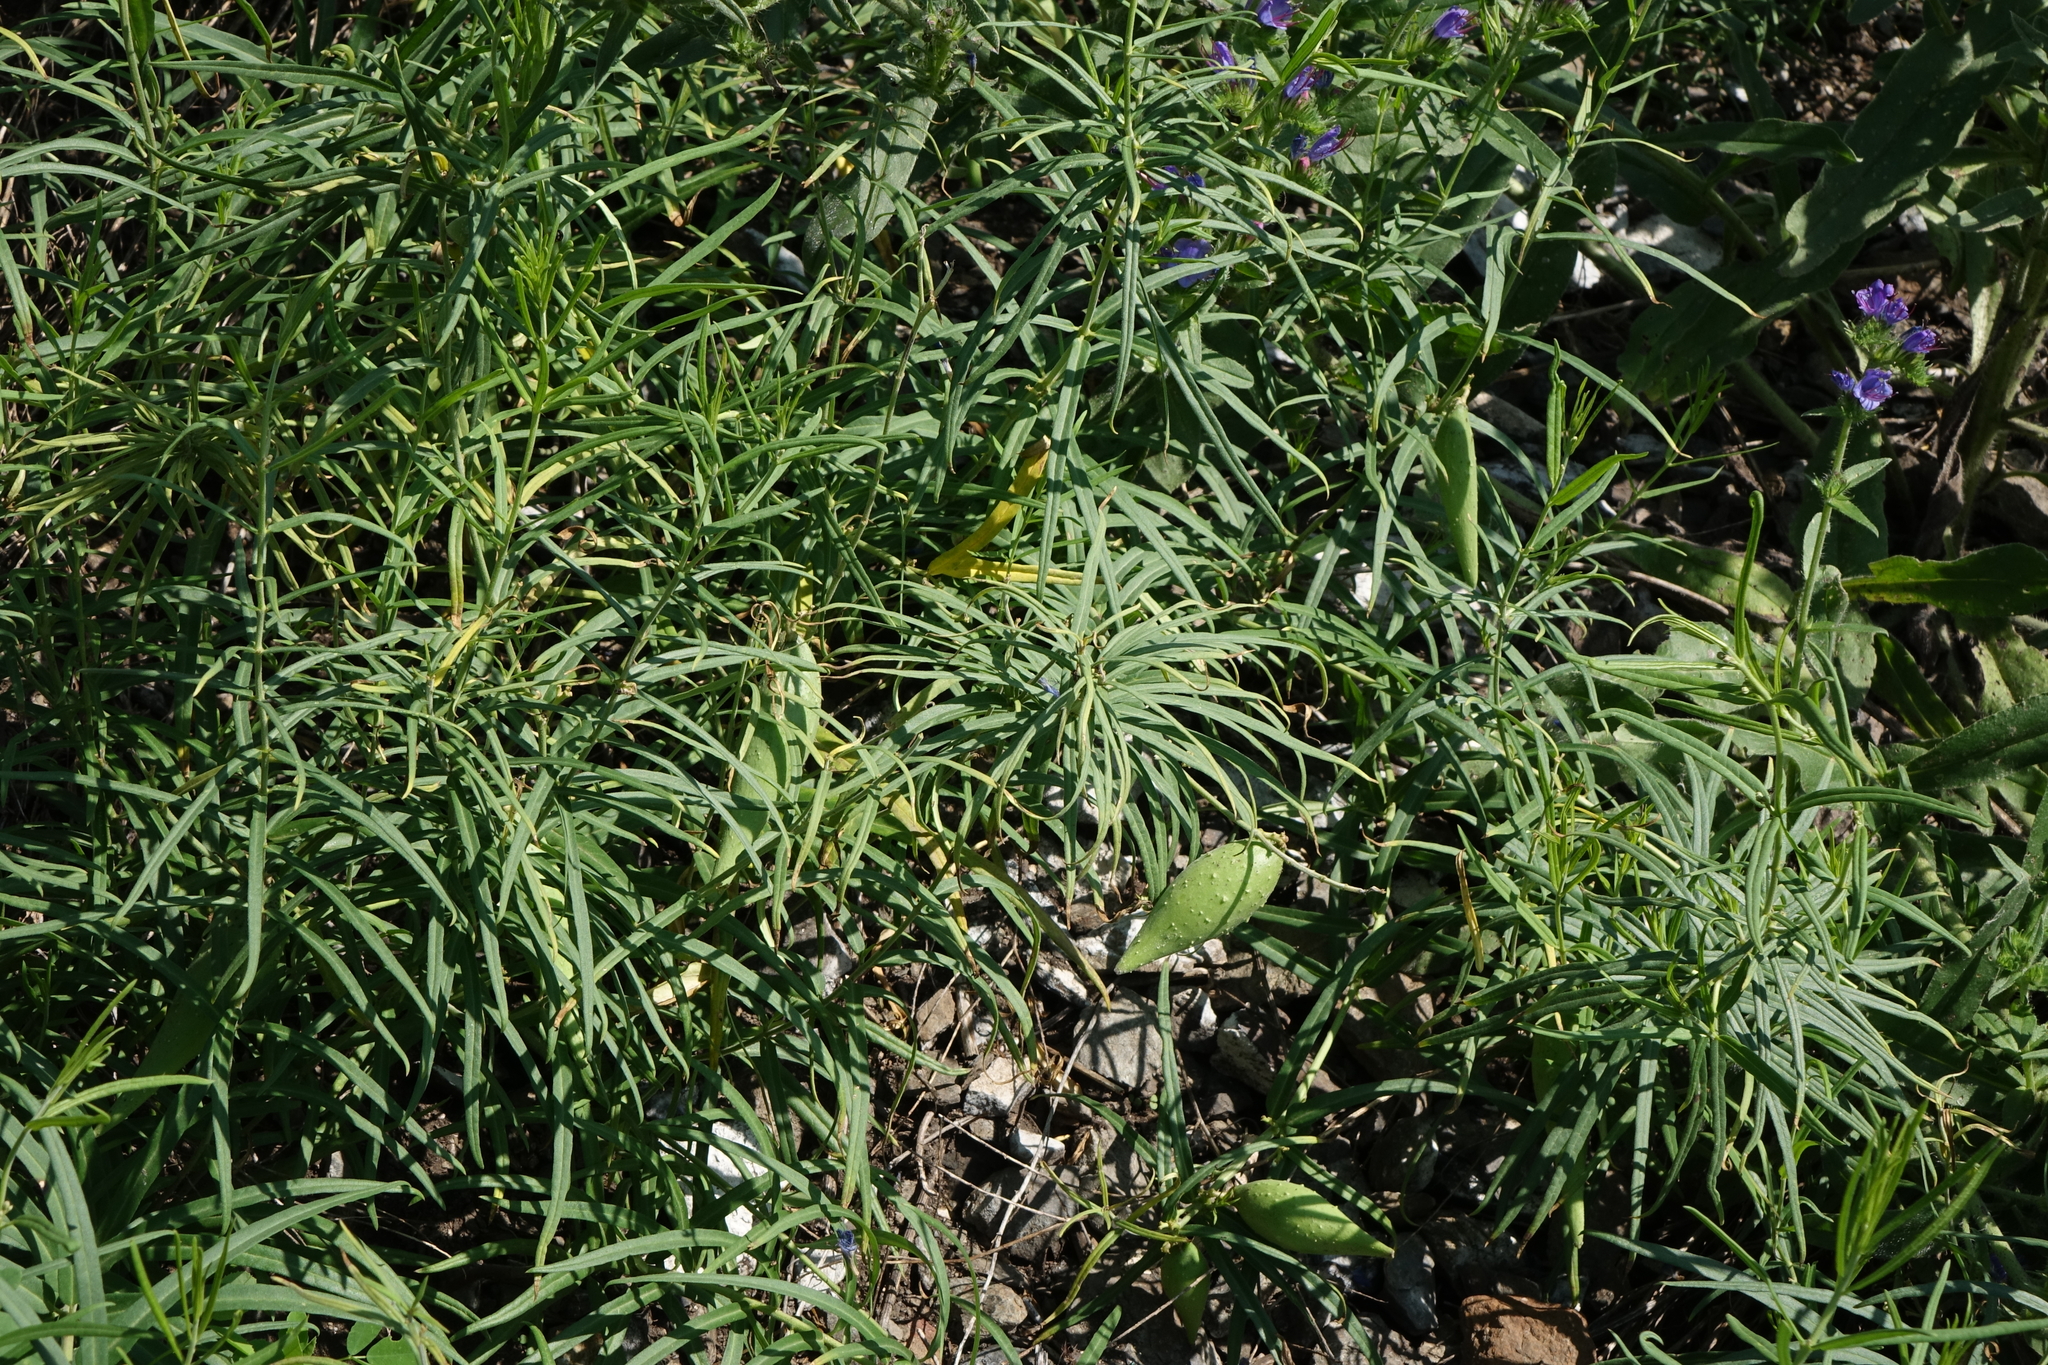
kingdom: Plantae
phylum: Tracheophyta
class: Magnoliopsida
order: Gentianales
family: Apocynaceae
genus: Cynanchum
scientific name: Cynanchum thesioides
